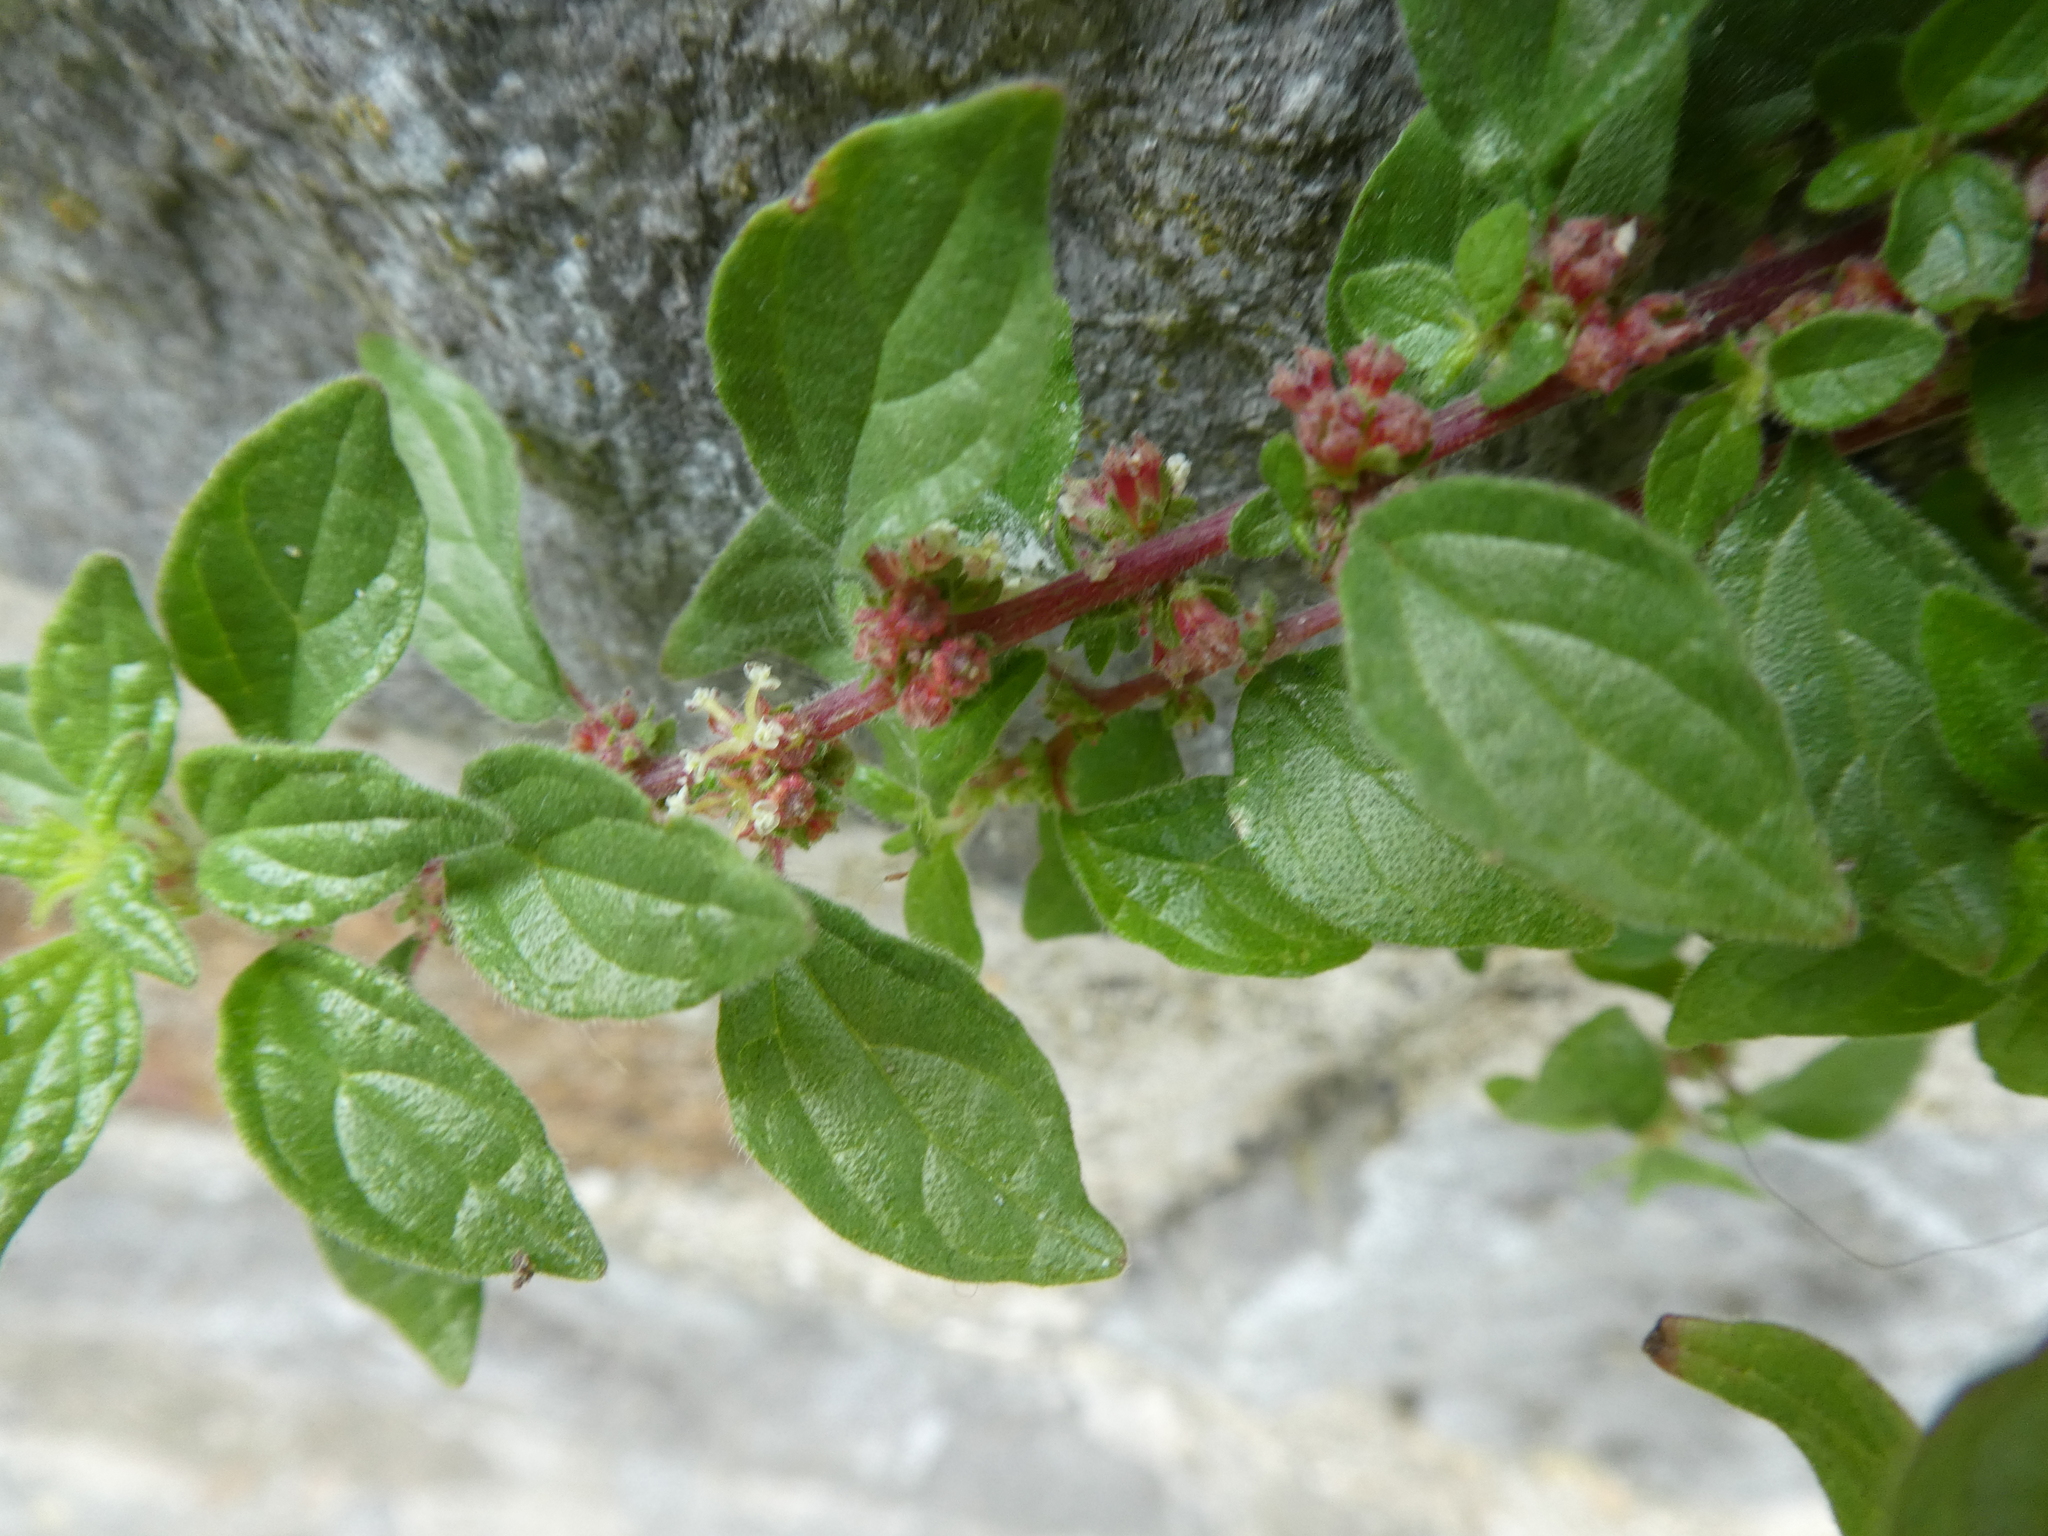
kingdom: Plantae
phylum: Tracheophyta
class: Magnoliopsida
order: Rosales
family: Urticaceae
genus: Parietaria
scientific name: Parietaria judaica
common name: Pellitory-of-the-wall
